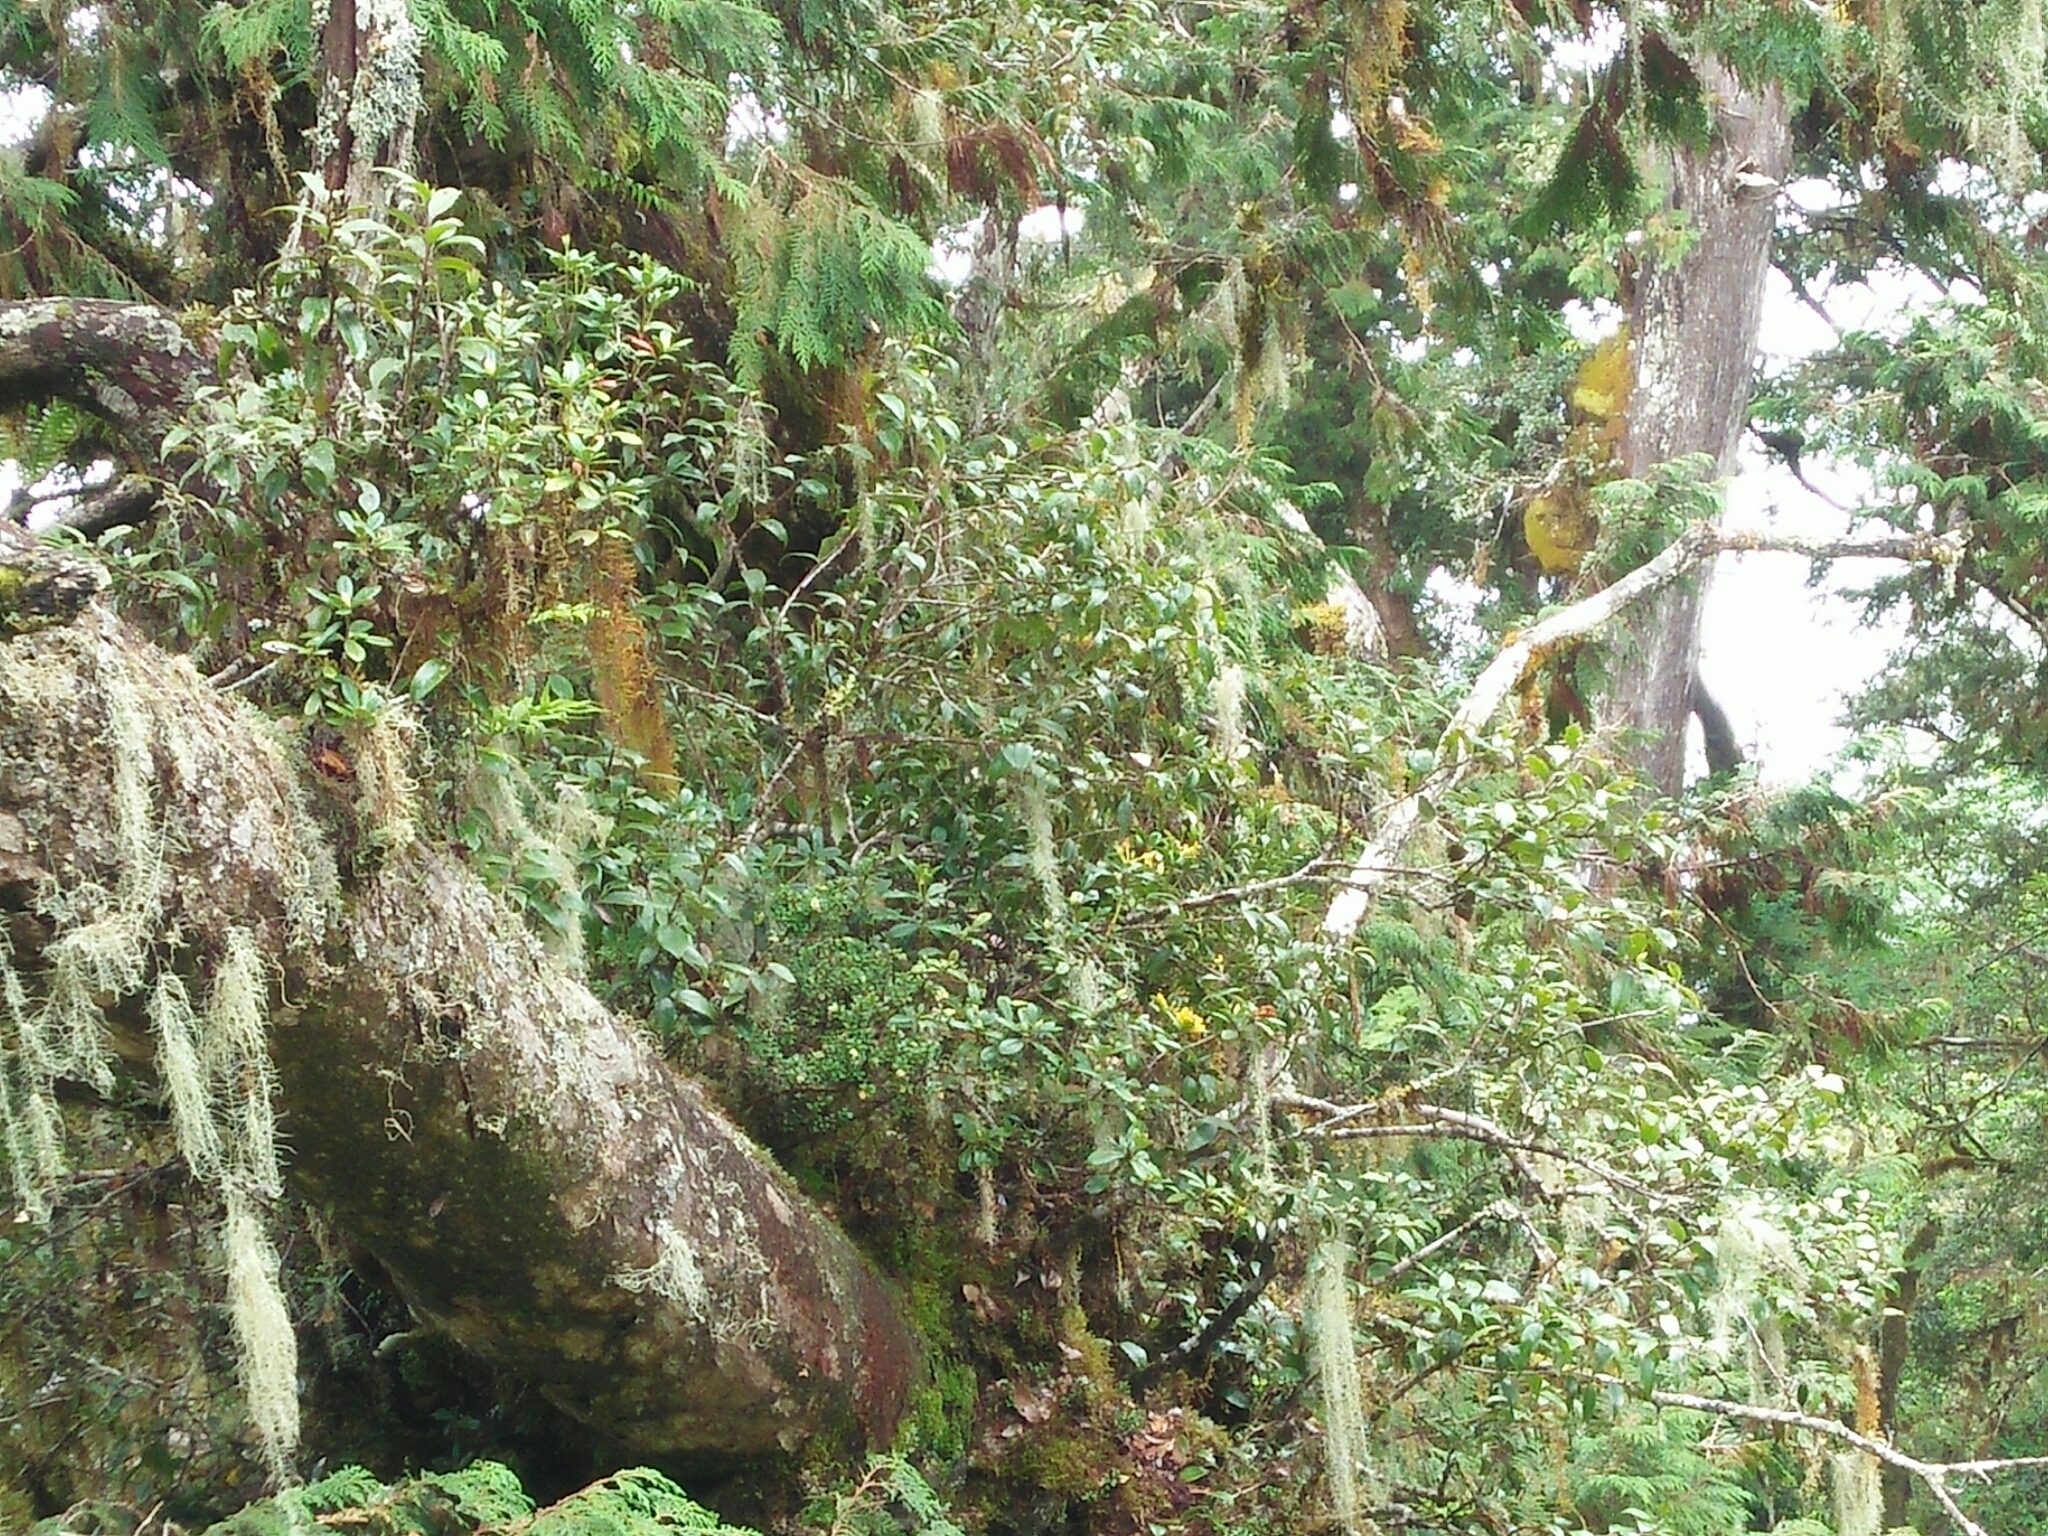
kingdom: Plantae
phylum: Tracheophyta
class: Magnoliopsida
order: Ericales
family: Ericaceae
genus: Rhododendron
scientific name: Rhododendron kawakamii
